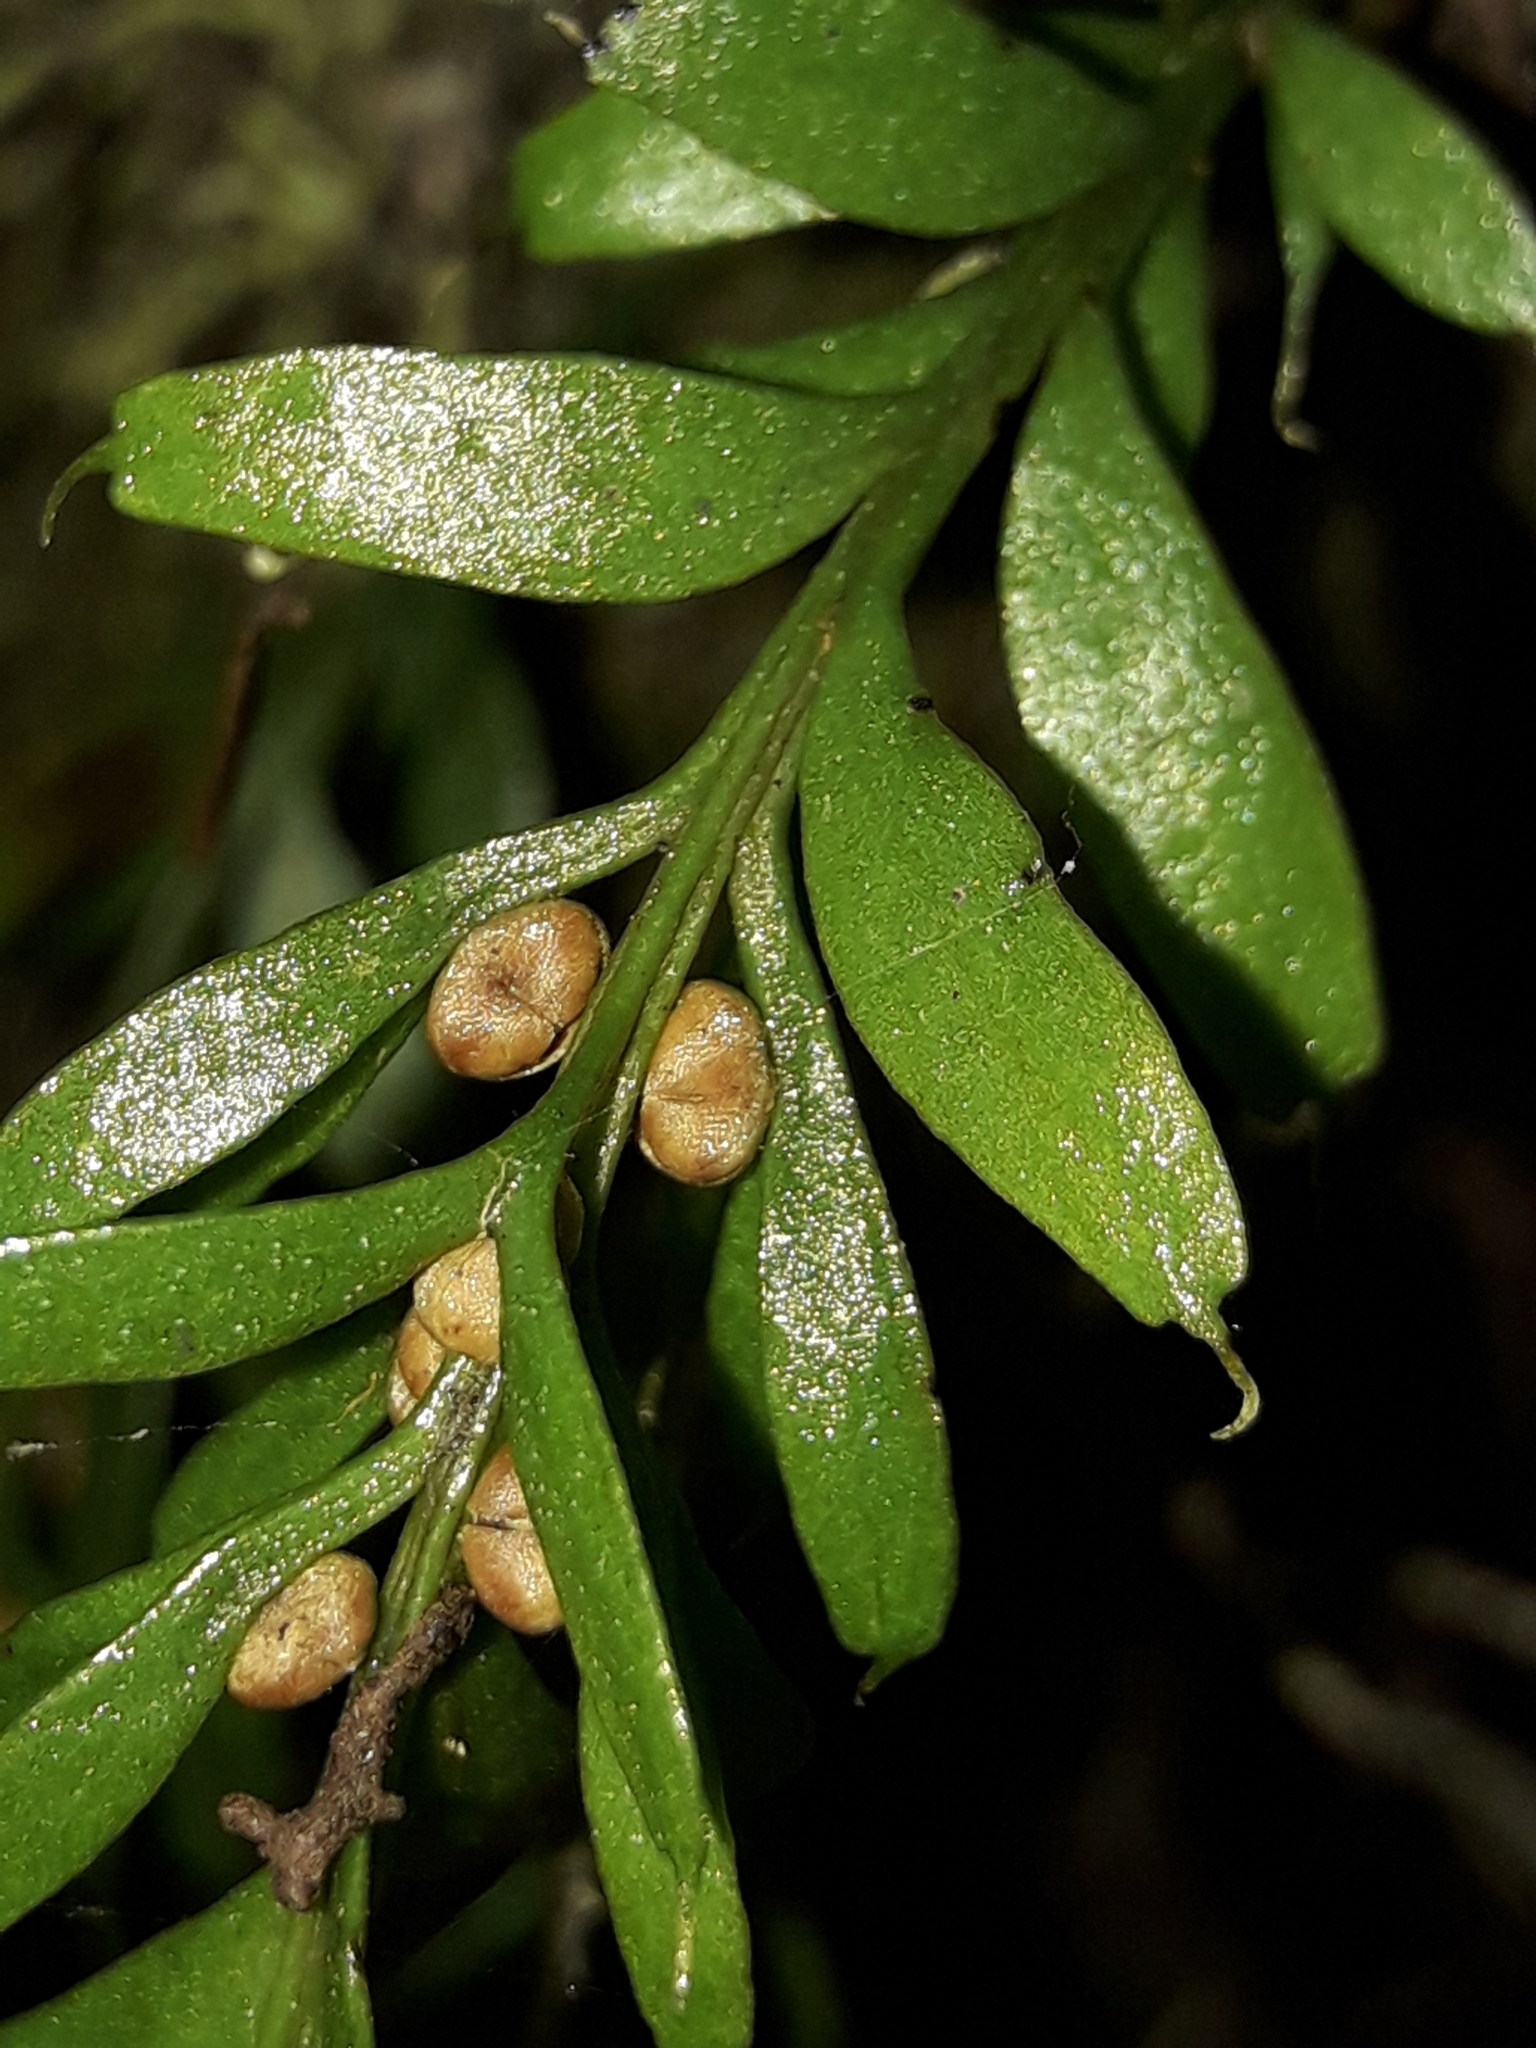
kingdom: Plantae
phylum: Tracheophyta
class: Polypodiopsida
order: Psilotales
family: Psilotaceae
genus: Tmesipteris
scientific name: Tmesipteris sigmatifolia
